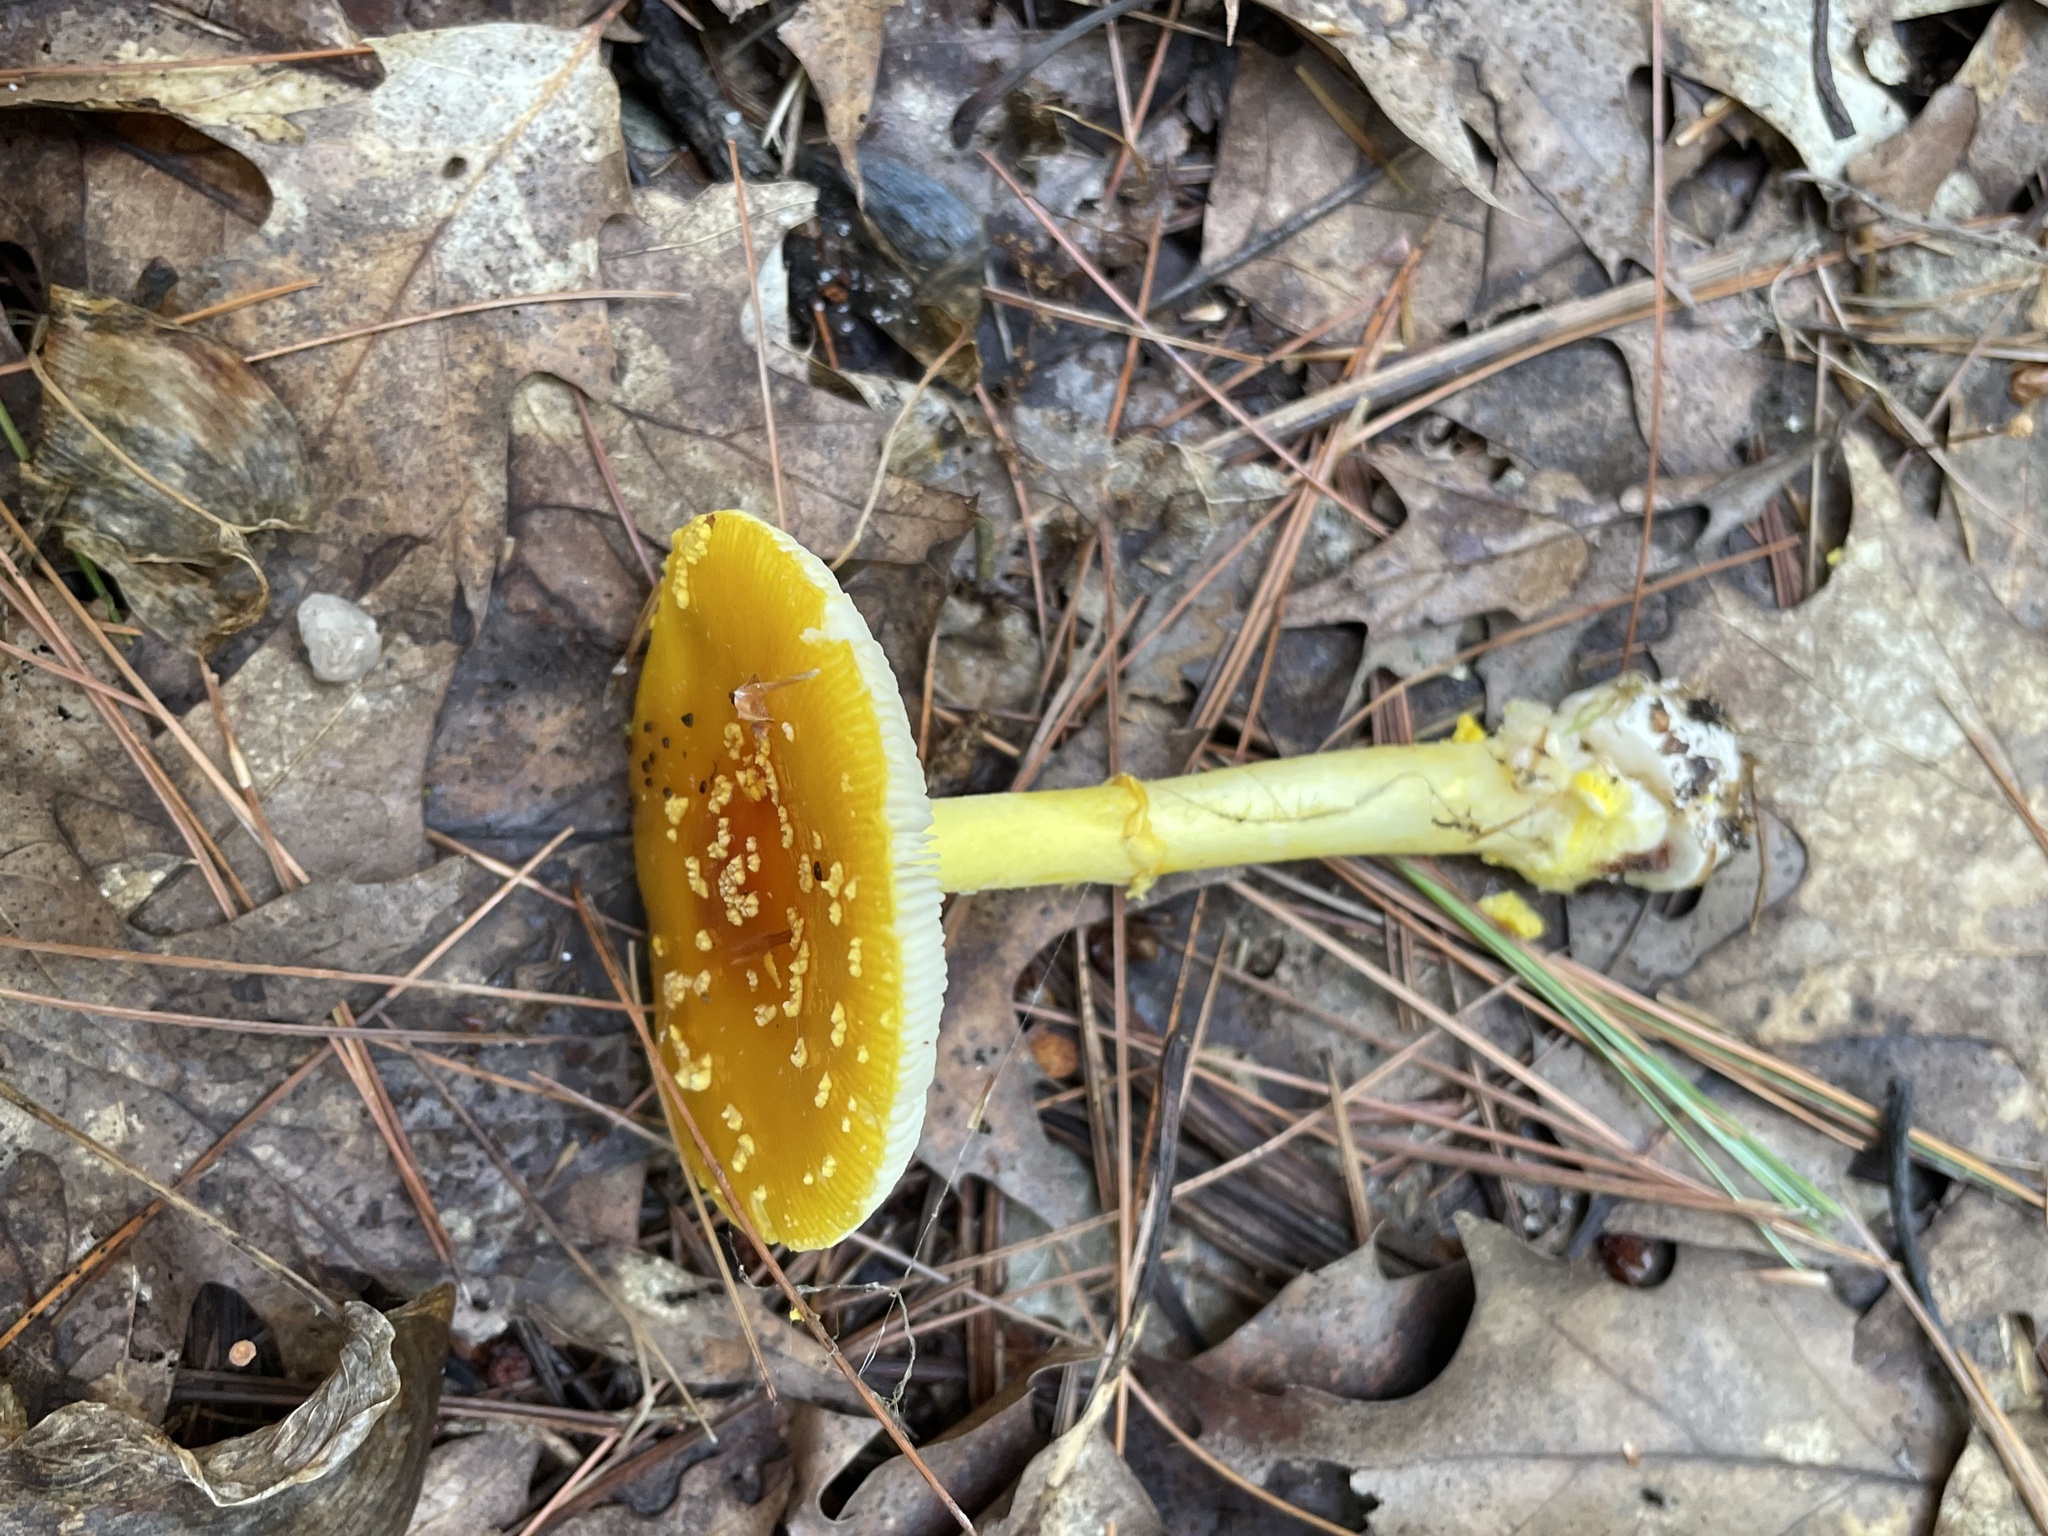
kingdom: Fungi
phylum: Basidiomycota
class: Agaricomycetes
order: Agaricales
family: Amanitaceae
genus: Amanita
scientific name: Amanita frostiana
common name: Frost's amanita
